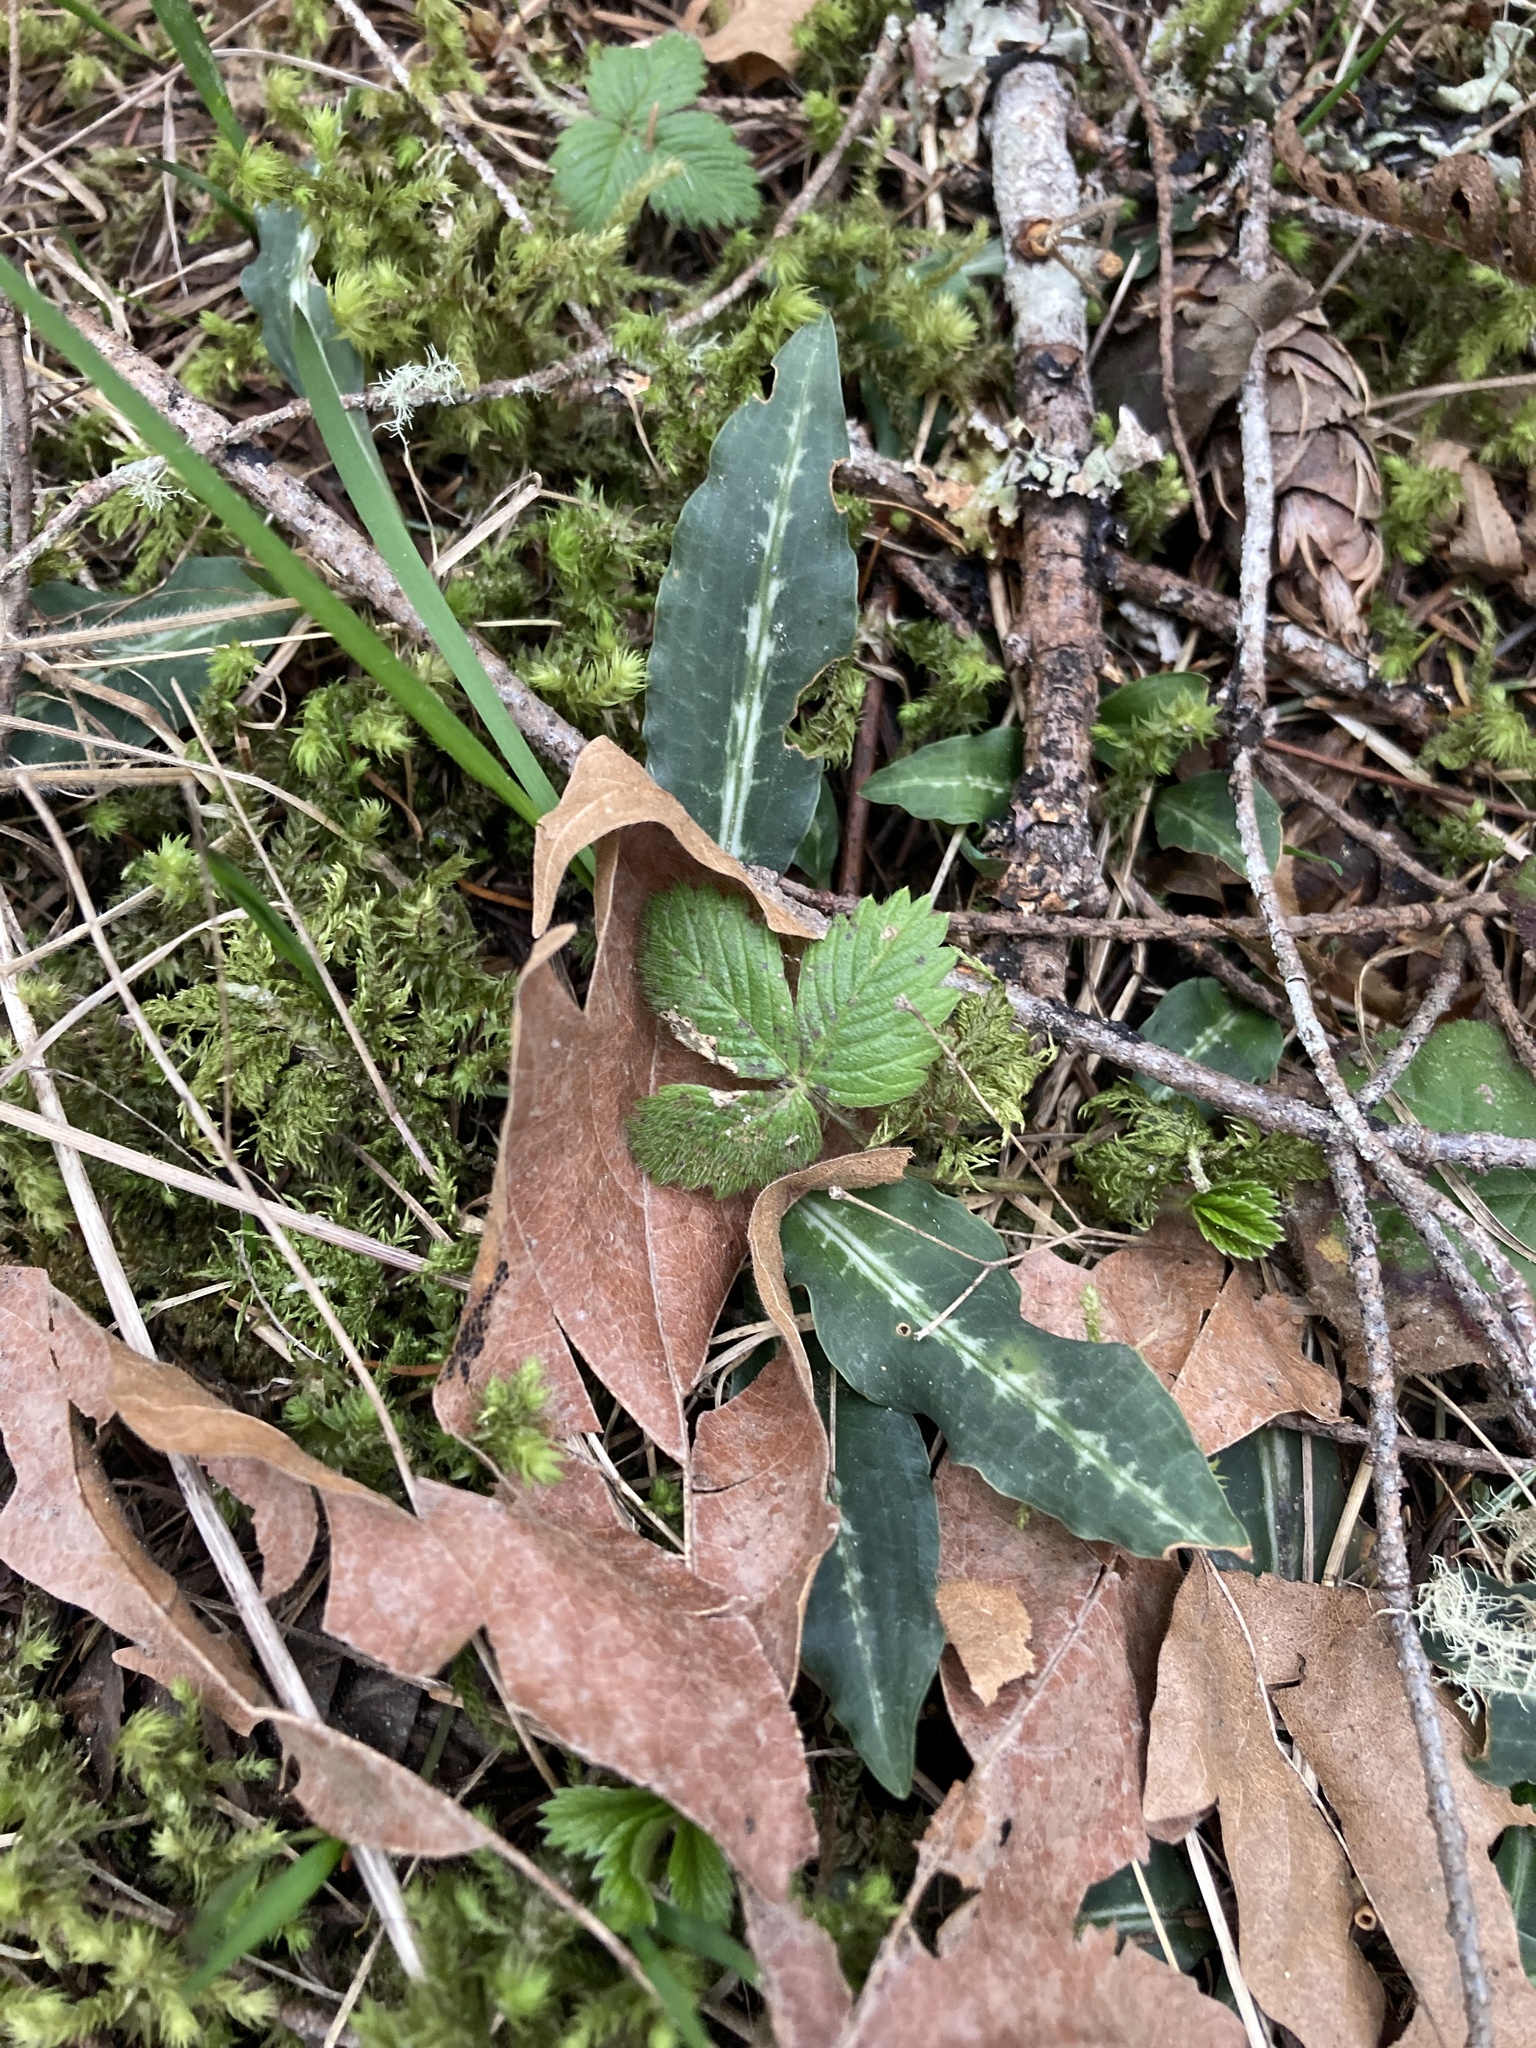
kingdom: Plantae
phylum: Tracheophyta
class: Liliopsida
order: Asparagales
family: Orchidaceae
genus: Goodyera
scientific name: Goodyera oblongifolia
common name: Giant rattlesnake-plantain
